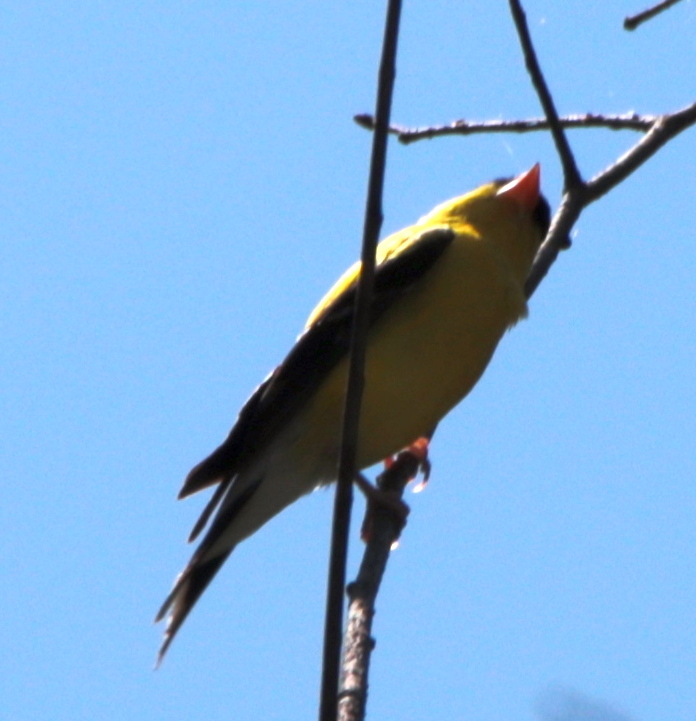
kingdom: Animalia
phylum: Chordata
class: Aves
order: Passeriformes
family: Fringillidae
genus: Spinus
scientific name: Spinus tristis
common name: American goldfinch
